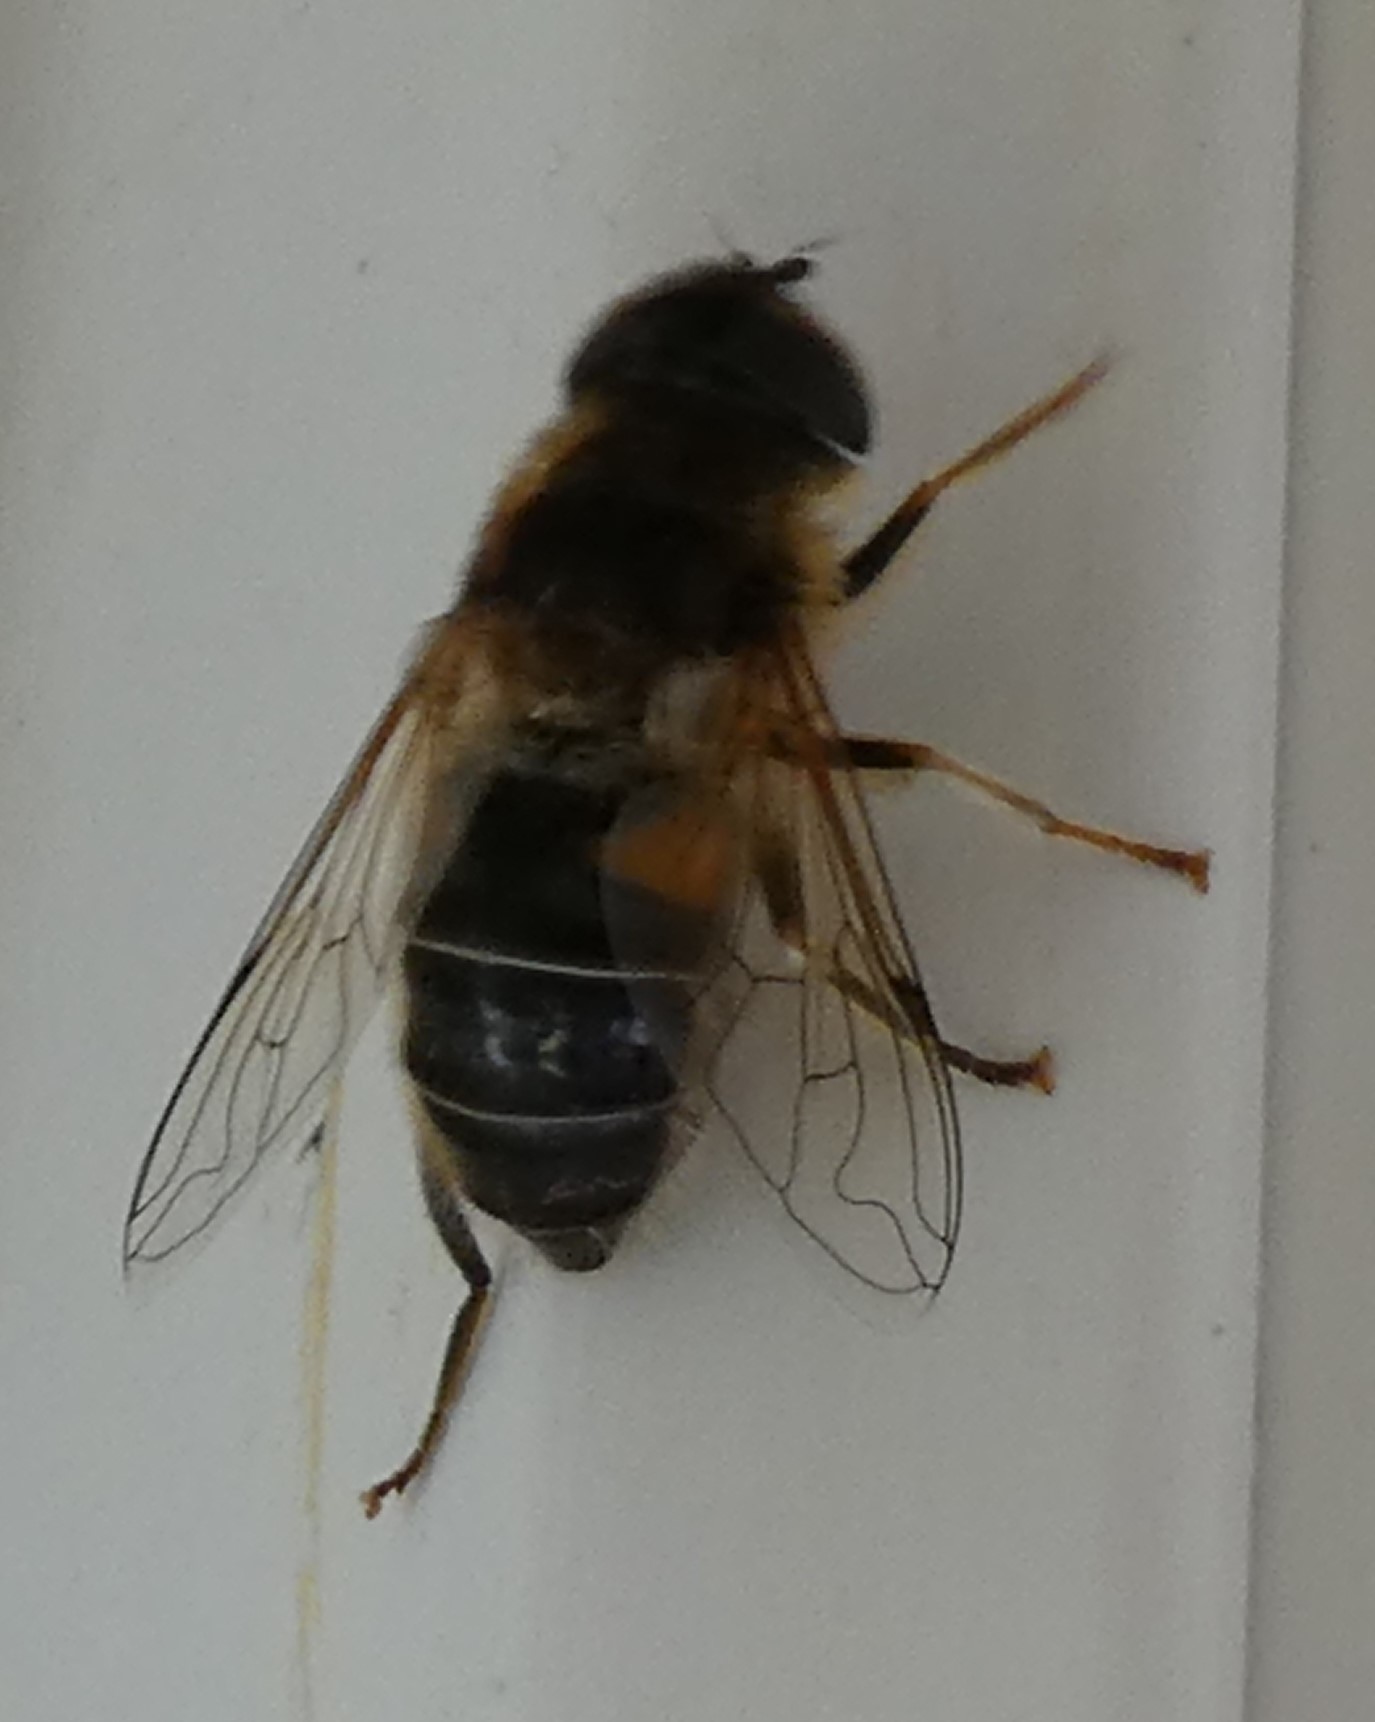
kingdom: Animalia
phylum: Arthropoda
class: Insecta
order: Diptera
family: Syrphidae
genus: Eristalis
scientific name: Eristalis pertinax
